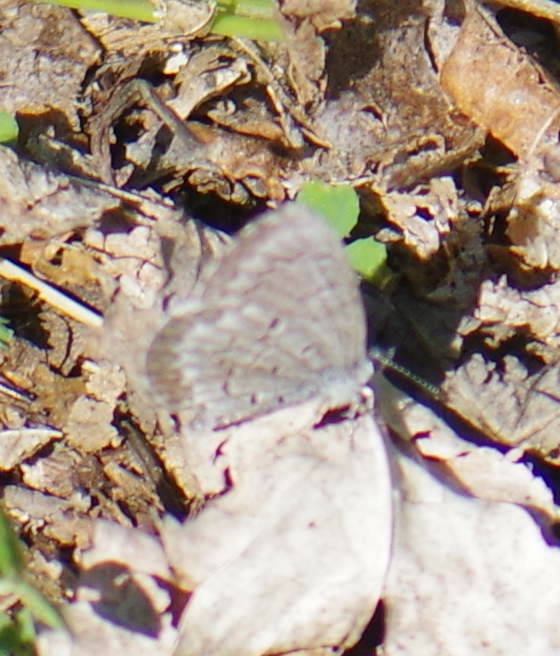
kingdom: Animalia
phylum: Arthropoda
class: Insecta
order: Lepidoptera
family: Lycaenidae
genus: Celastrina
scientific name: Celastrina lucia
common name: Lucia azure
